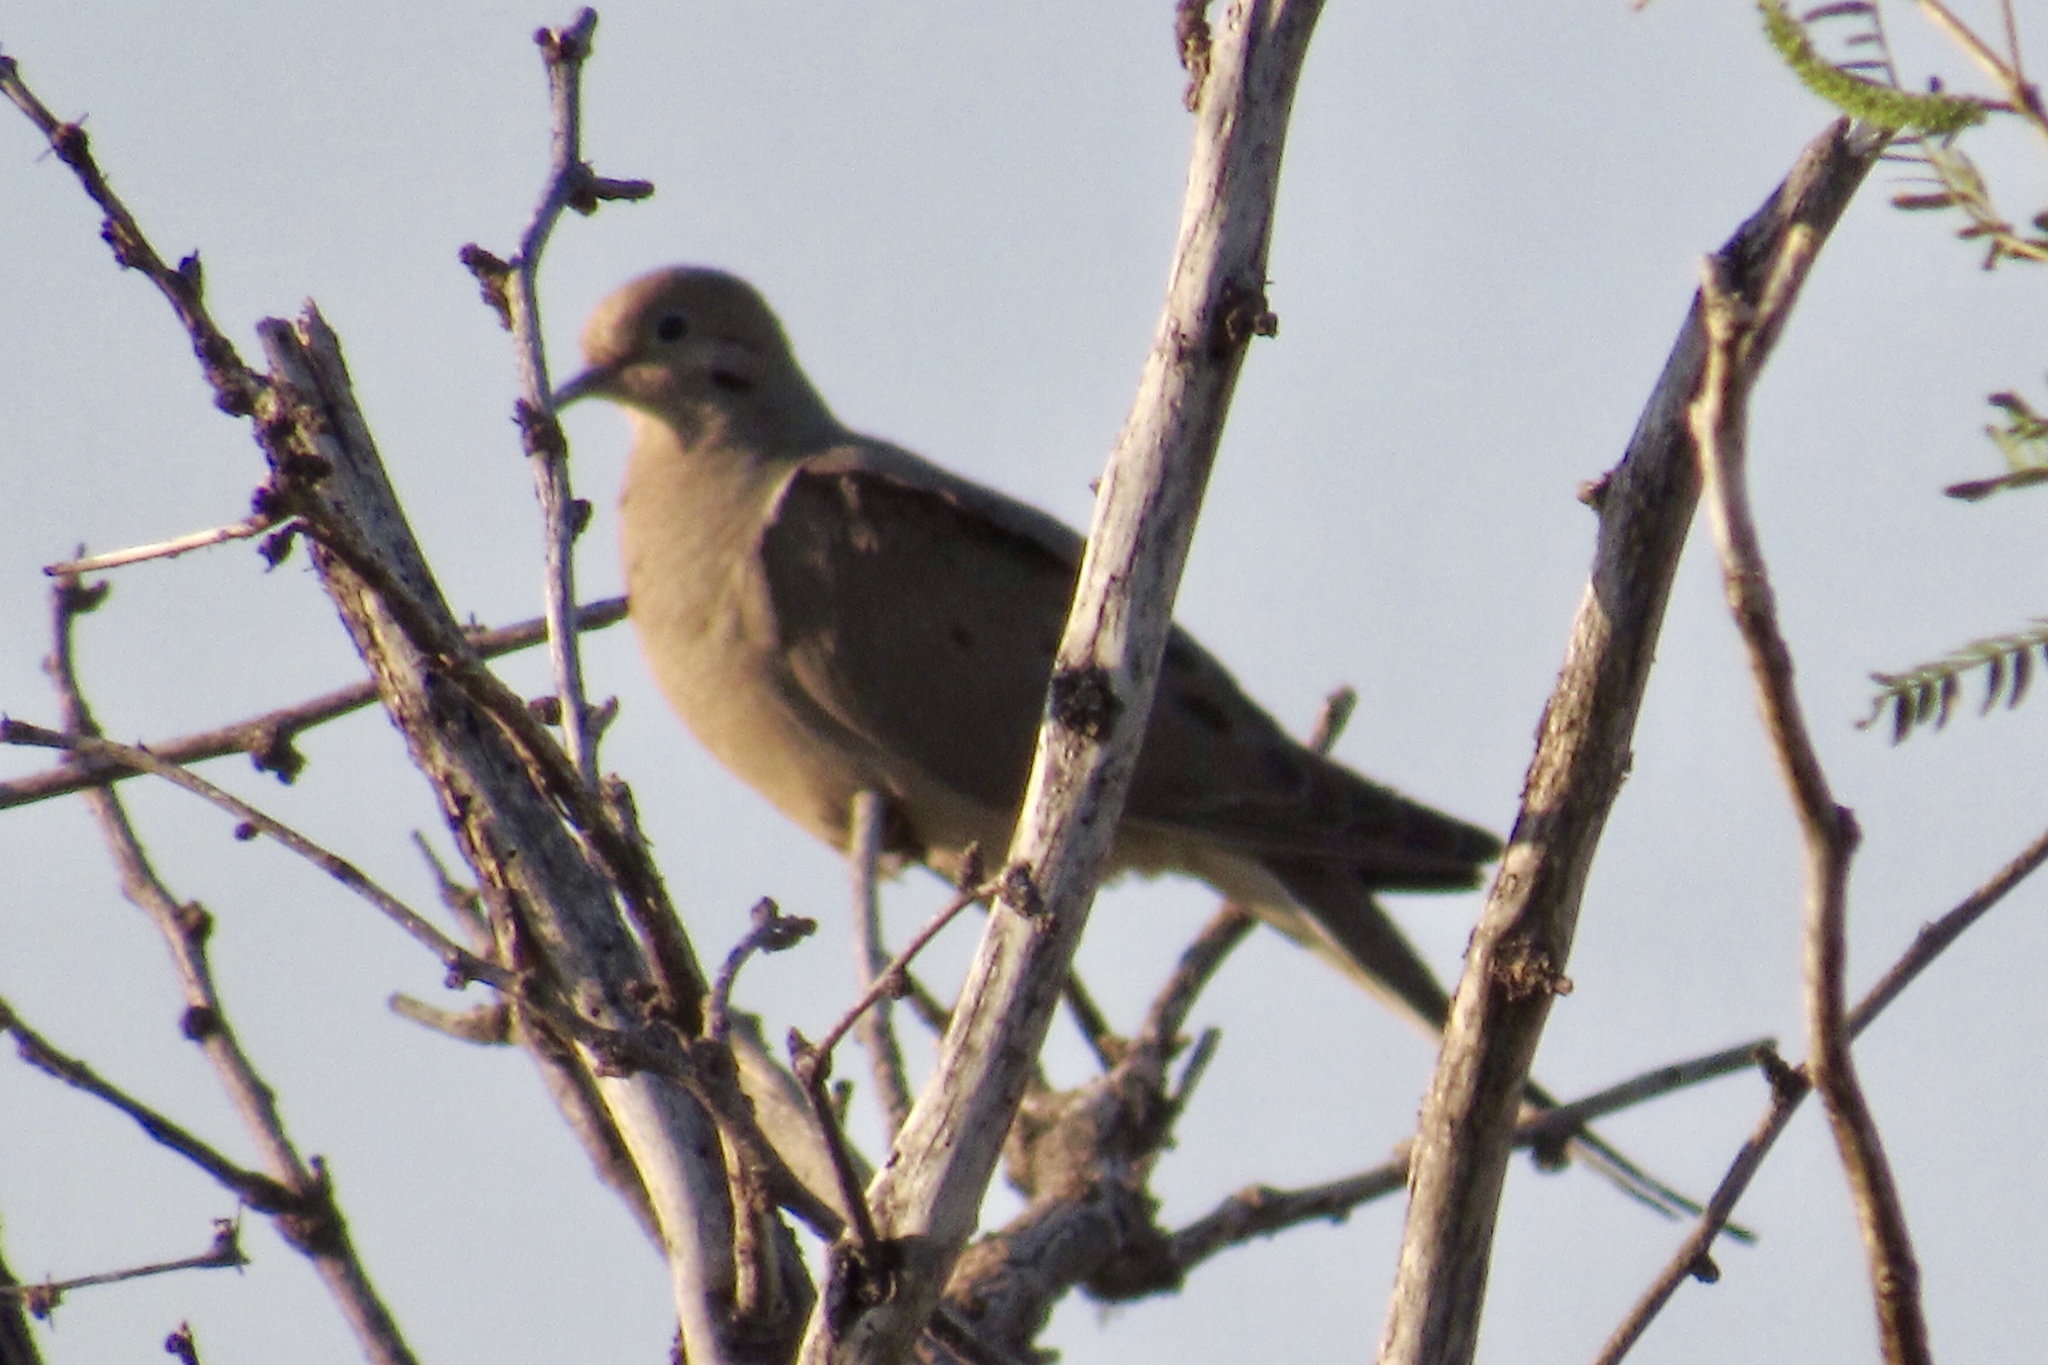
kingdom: Animalia
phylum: Chordata
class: Aves
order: Columbiformes
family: Columbidae
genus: Zenaida
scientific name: Zenaida macroura
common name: Mourning dove
